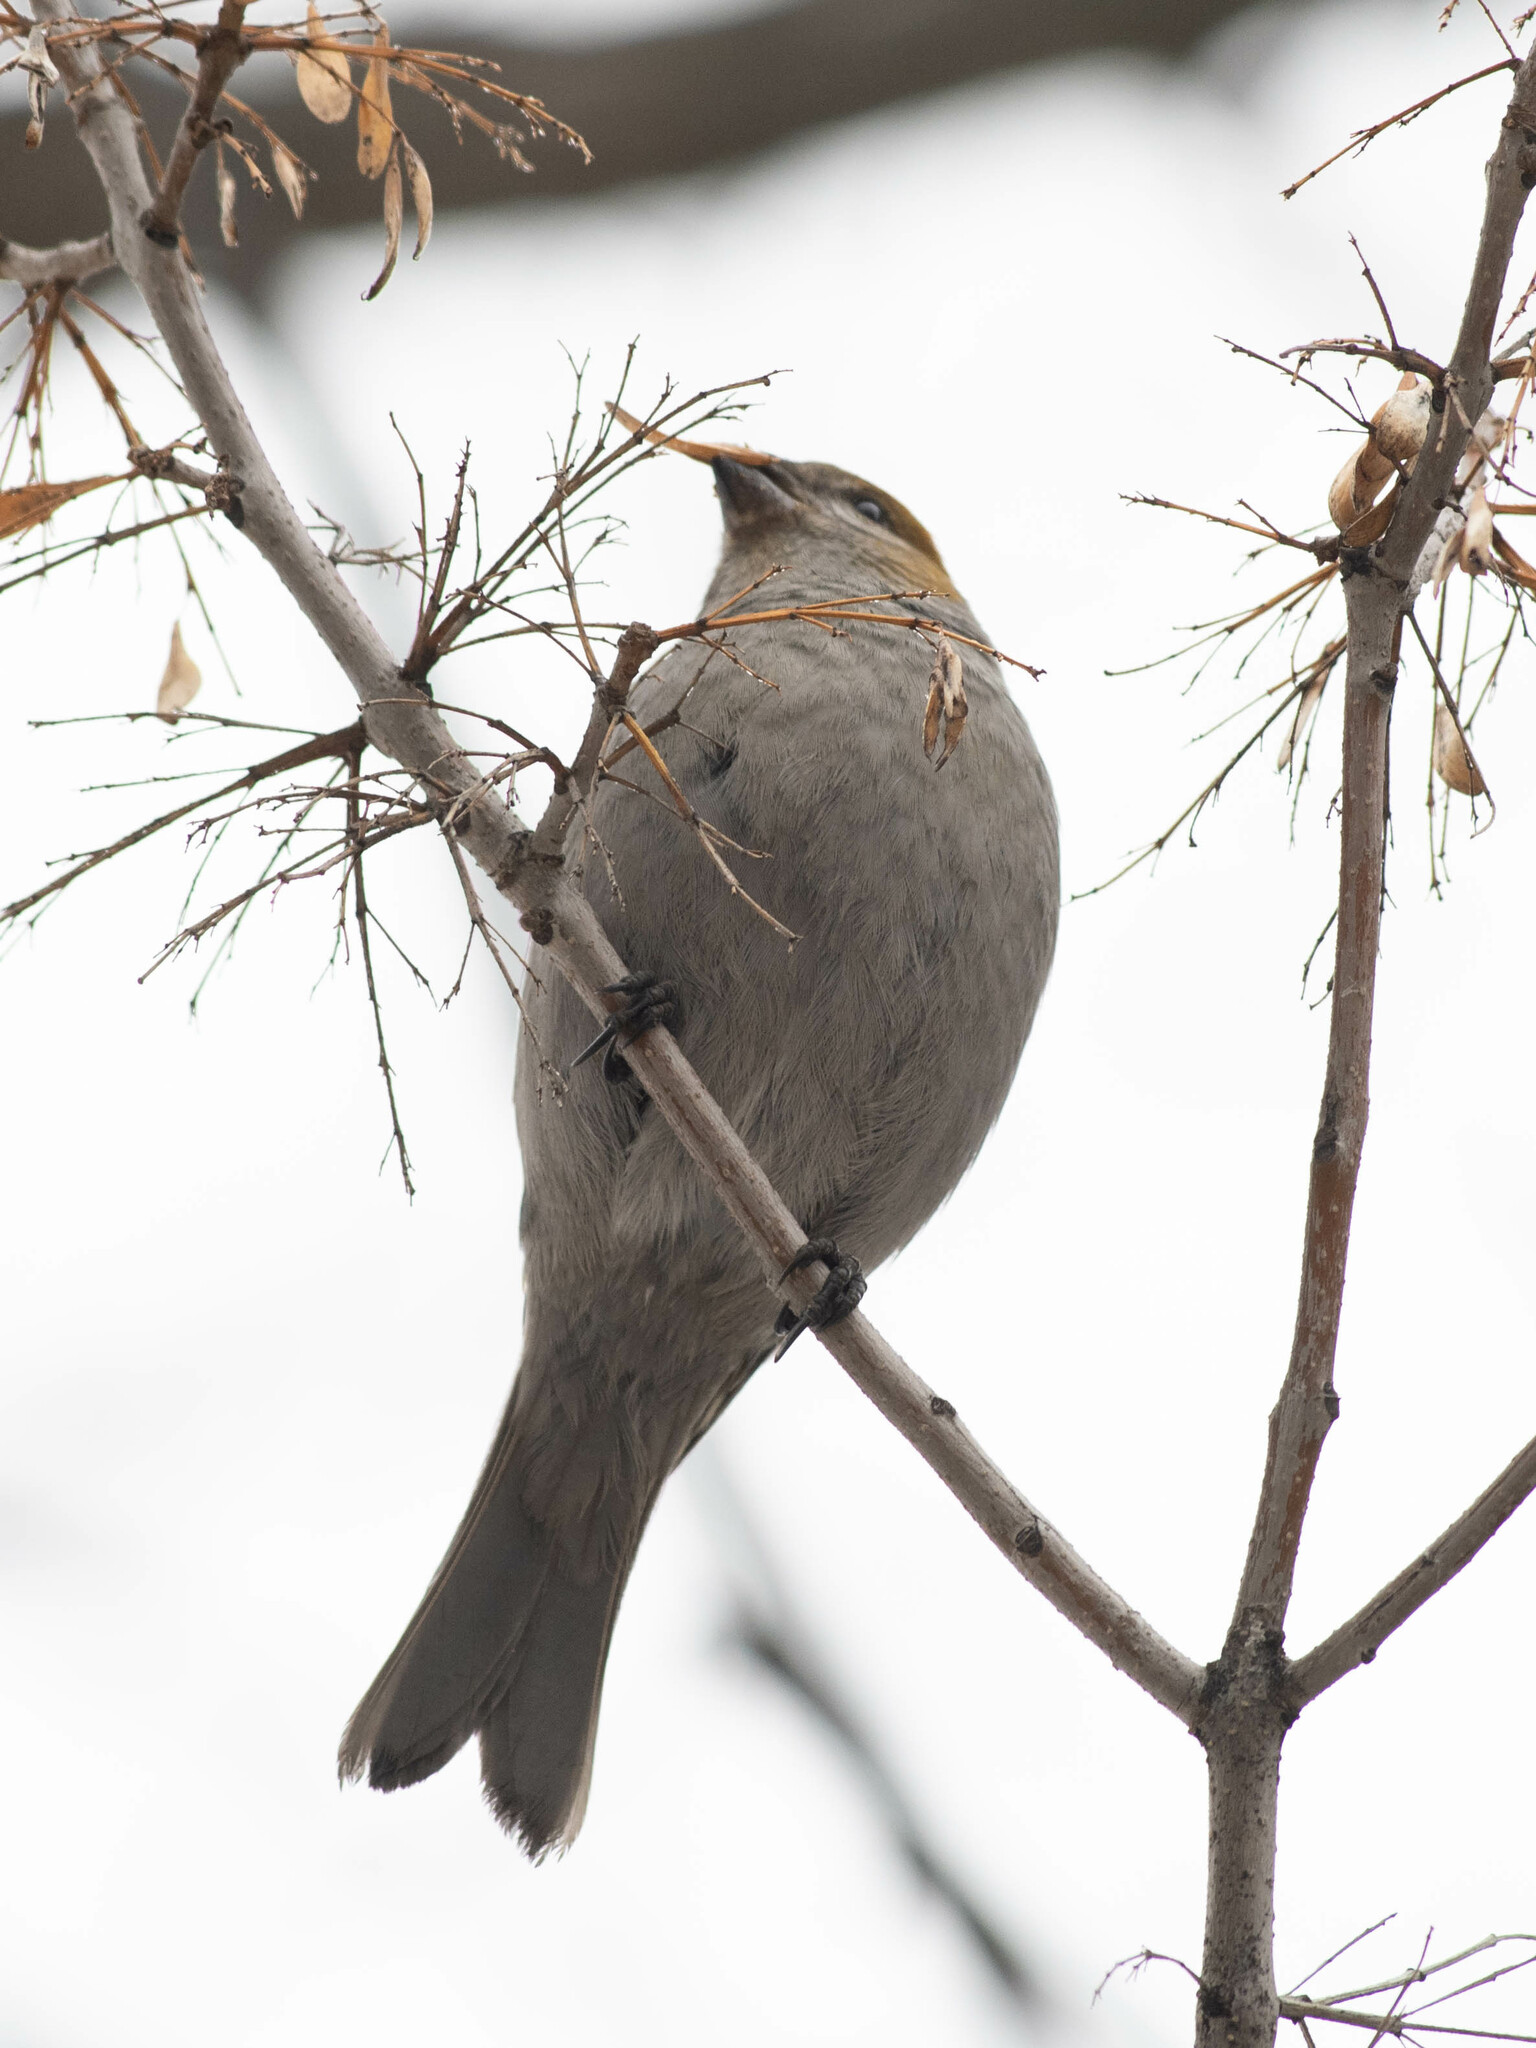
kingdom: Animalia
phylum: Chordata
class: Aves
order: Passeriformes
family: Fringillidae
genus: Pinicola
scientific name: Pinicola enucleator
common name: Pine grosbeak
